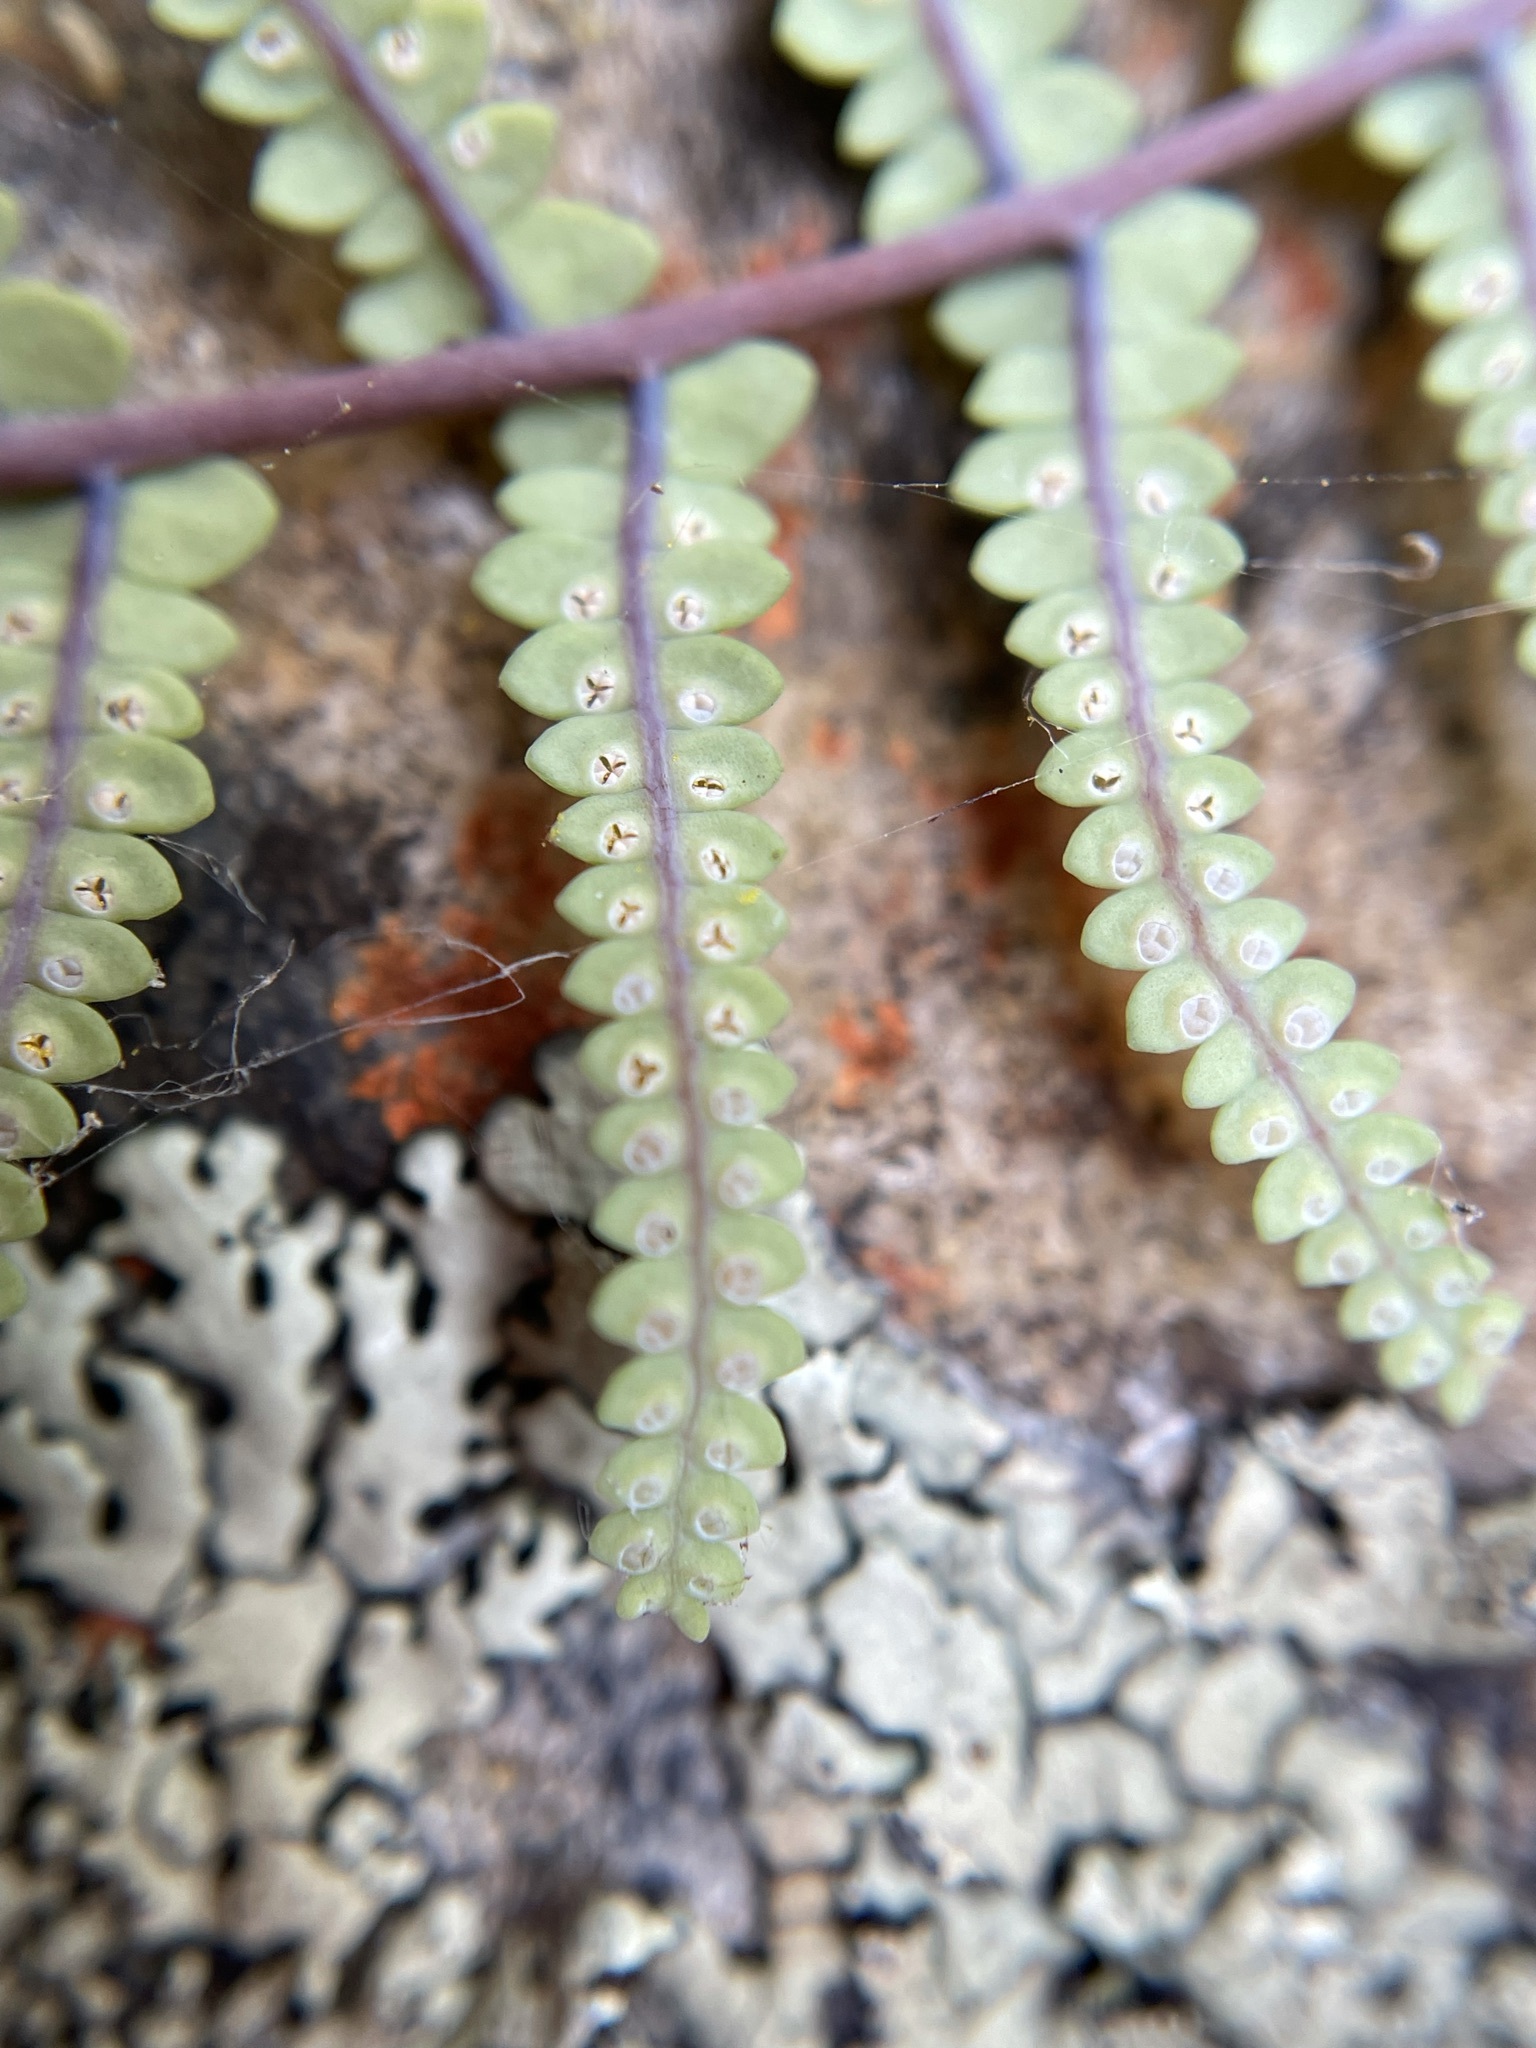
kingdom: Plantae
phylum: Tracheophyta
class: Polypodiopsida
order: Gleicheniales
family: Gleicheniaceae
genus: Gleichenia
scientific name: Gleichenia polypodioides
